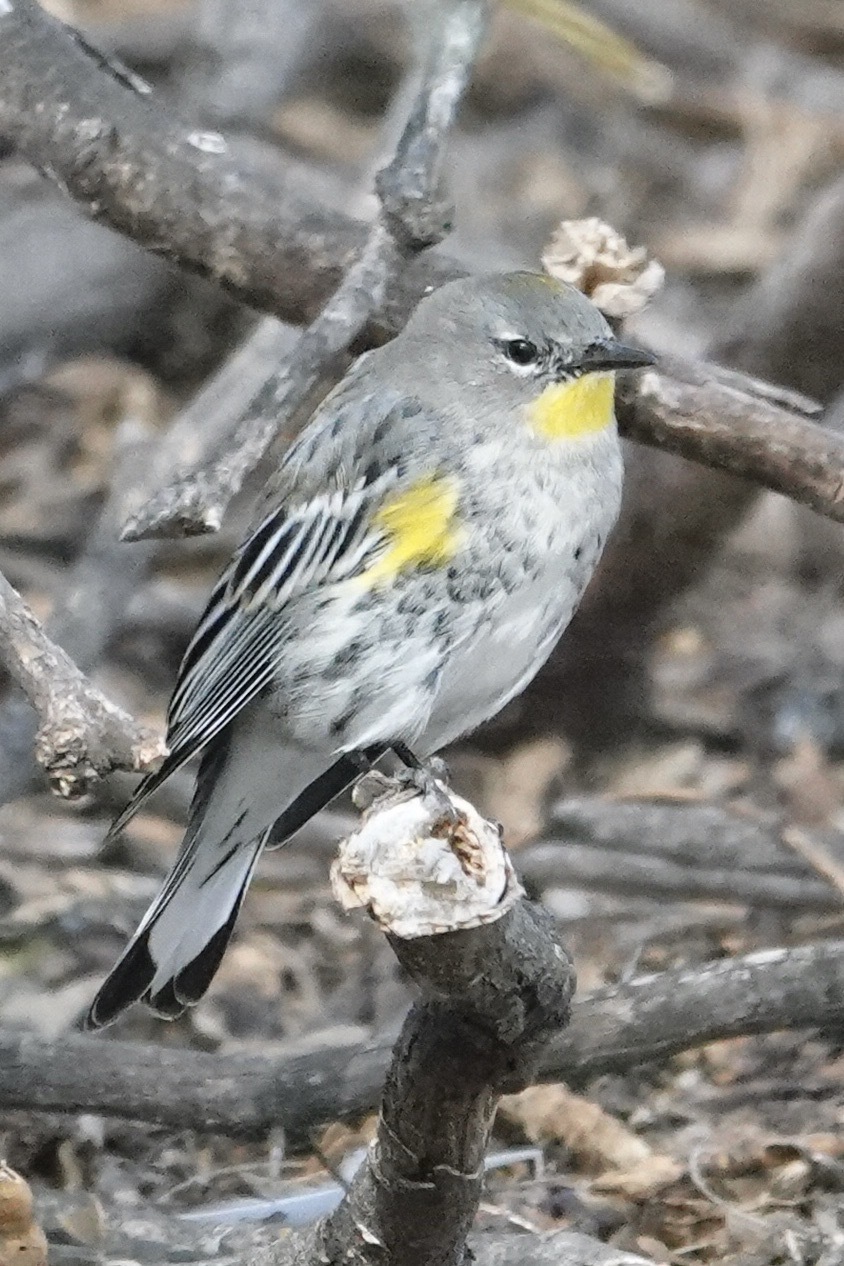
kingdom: Animalia
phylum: Chordata
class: Aves
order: Passeriformes
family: Parulidae
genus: Setophaga
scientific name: Setophaga auduboni
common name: Audubon's warbler
